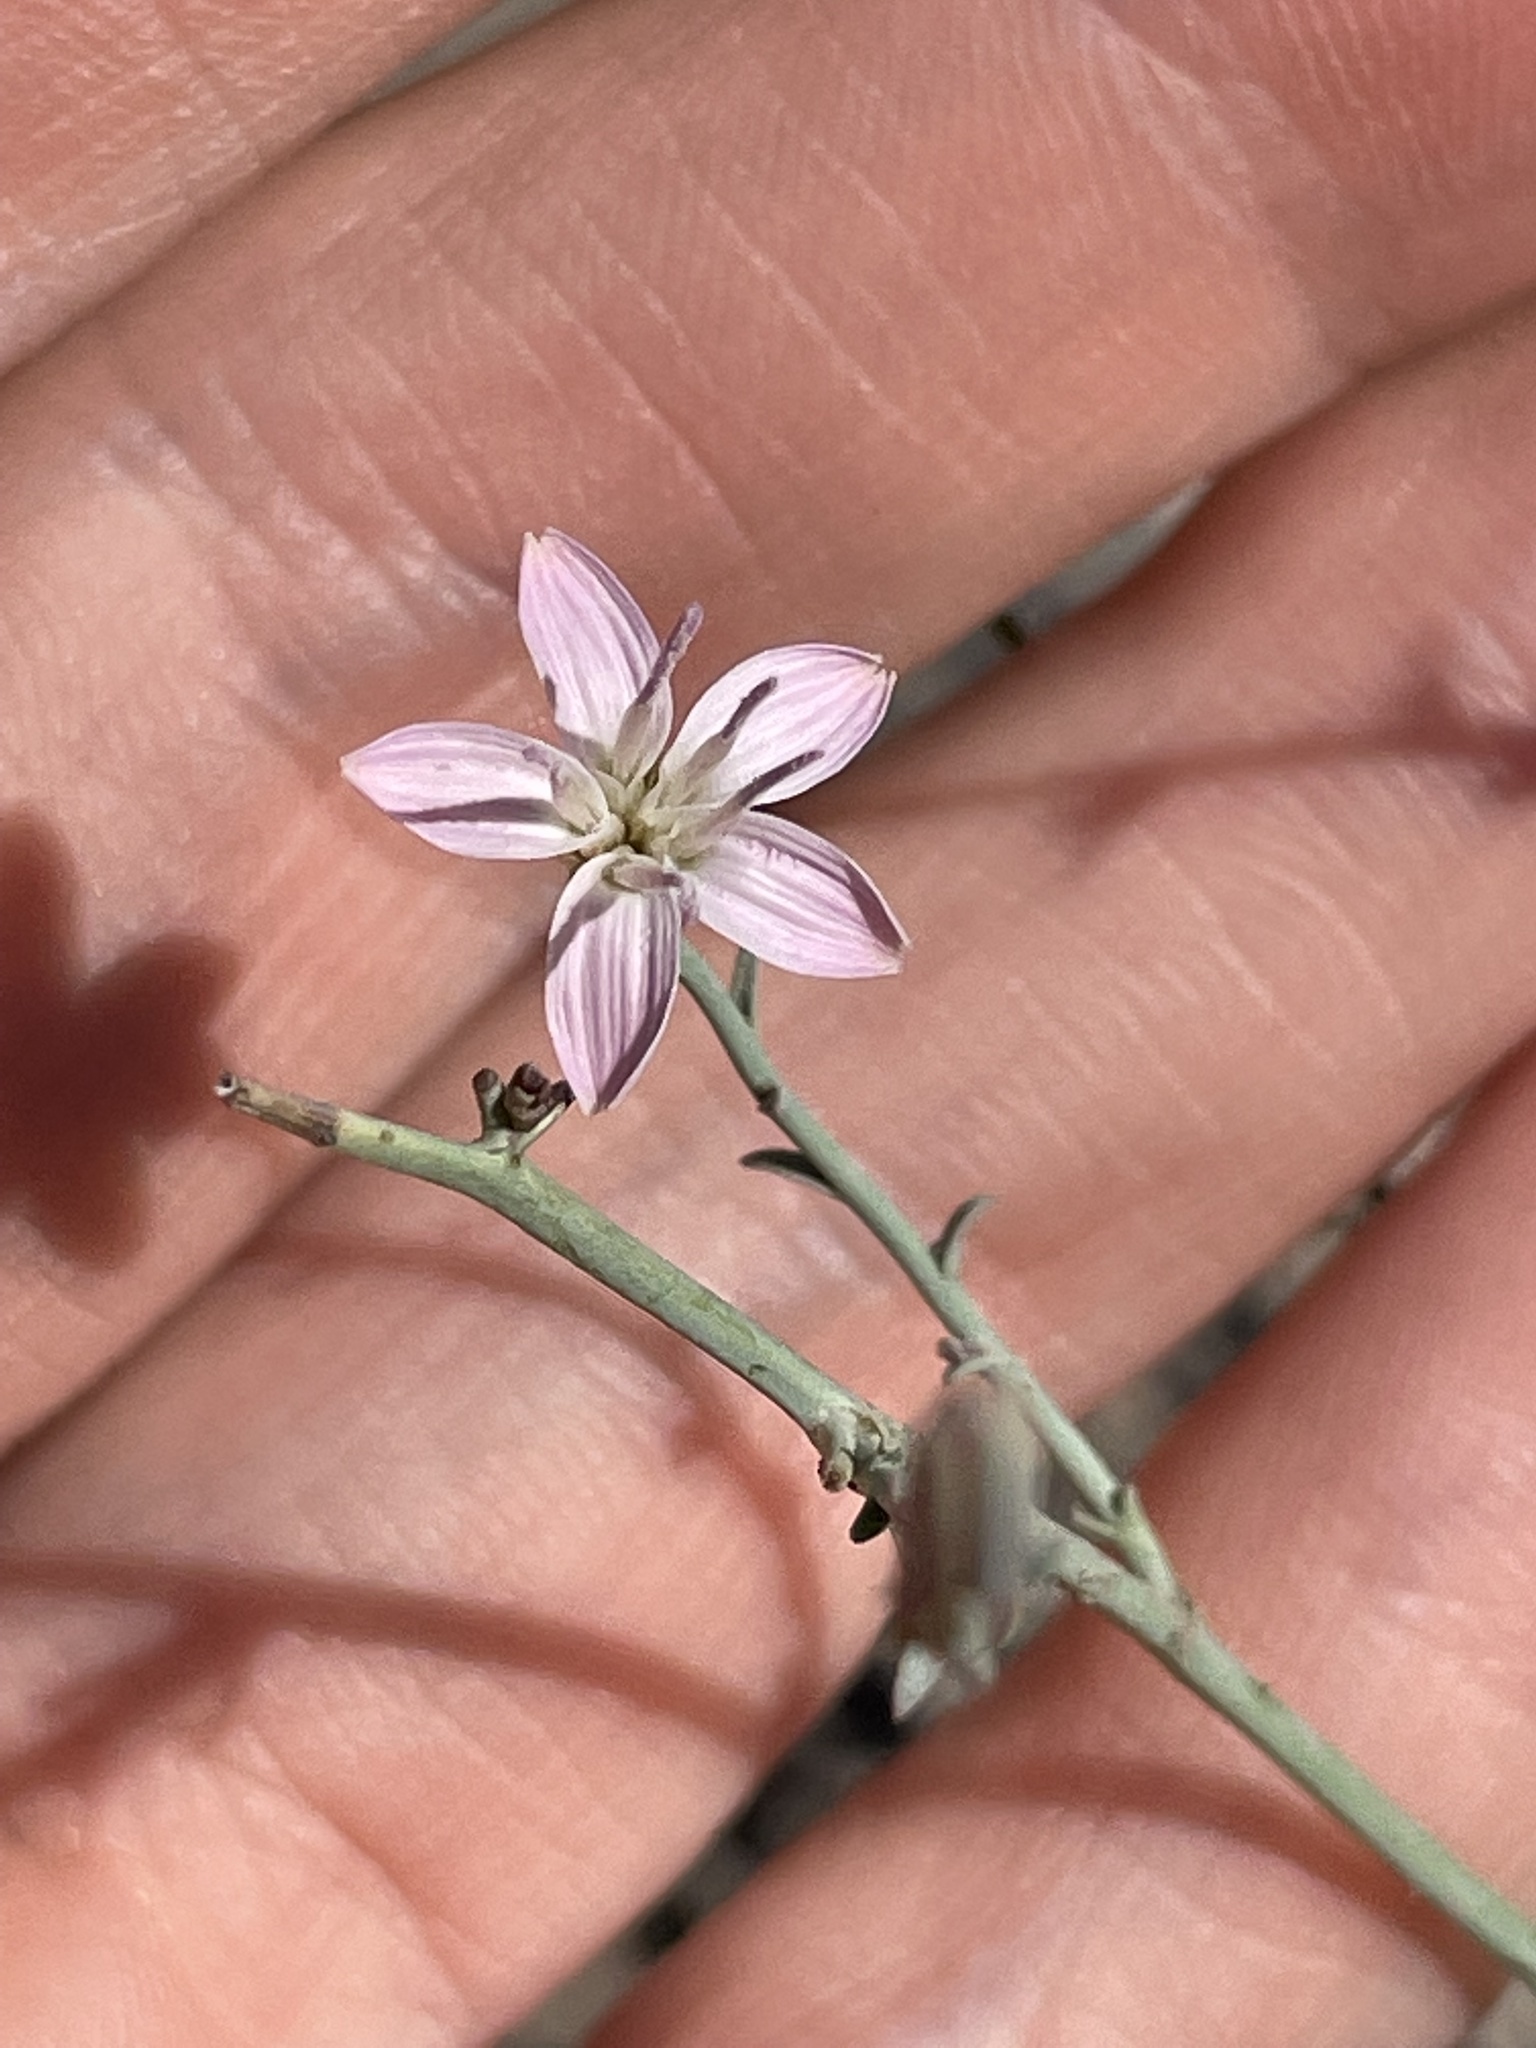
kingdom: Plantae
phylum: Tracheophyta
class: Magnoliopsida
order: Asterales
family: Asteraceae
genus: Stephanomeria
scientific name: Stephanomeria pauciflora
